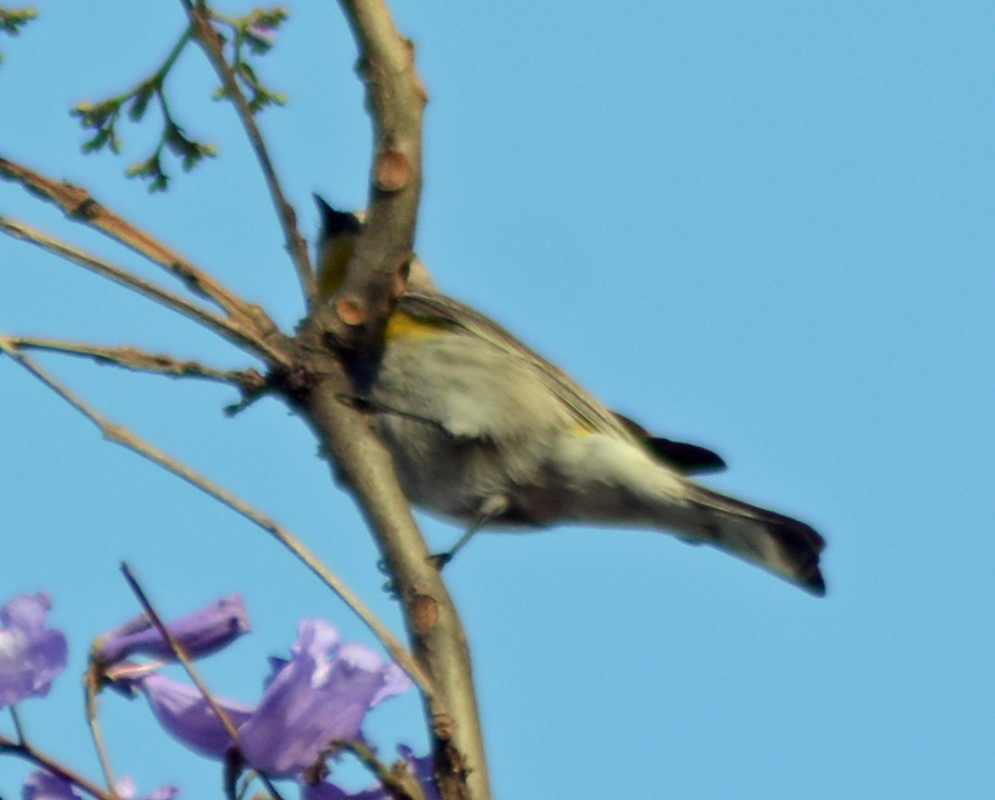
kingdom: Animalia
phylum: Chordata
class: Aves
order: Passeriformes
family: Parulidae
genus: Setophaga
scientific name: Setophaga coronata
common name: Myrtle warbler
